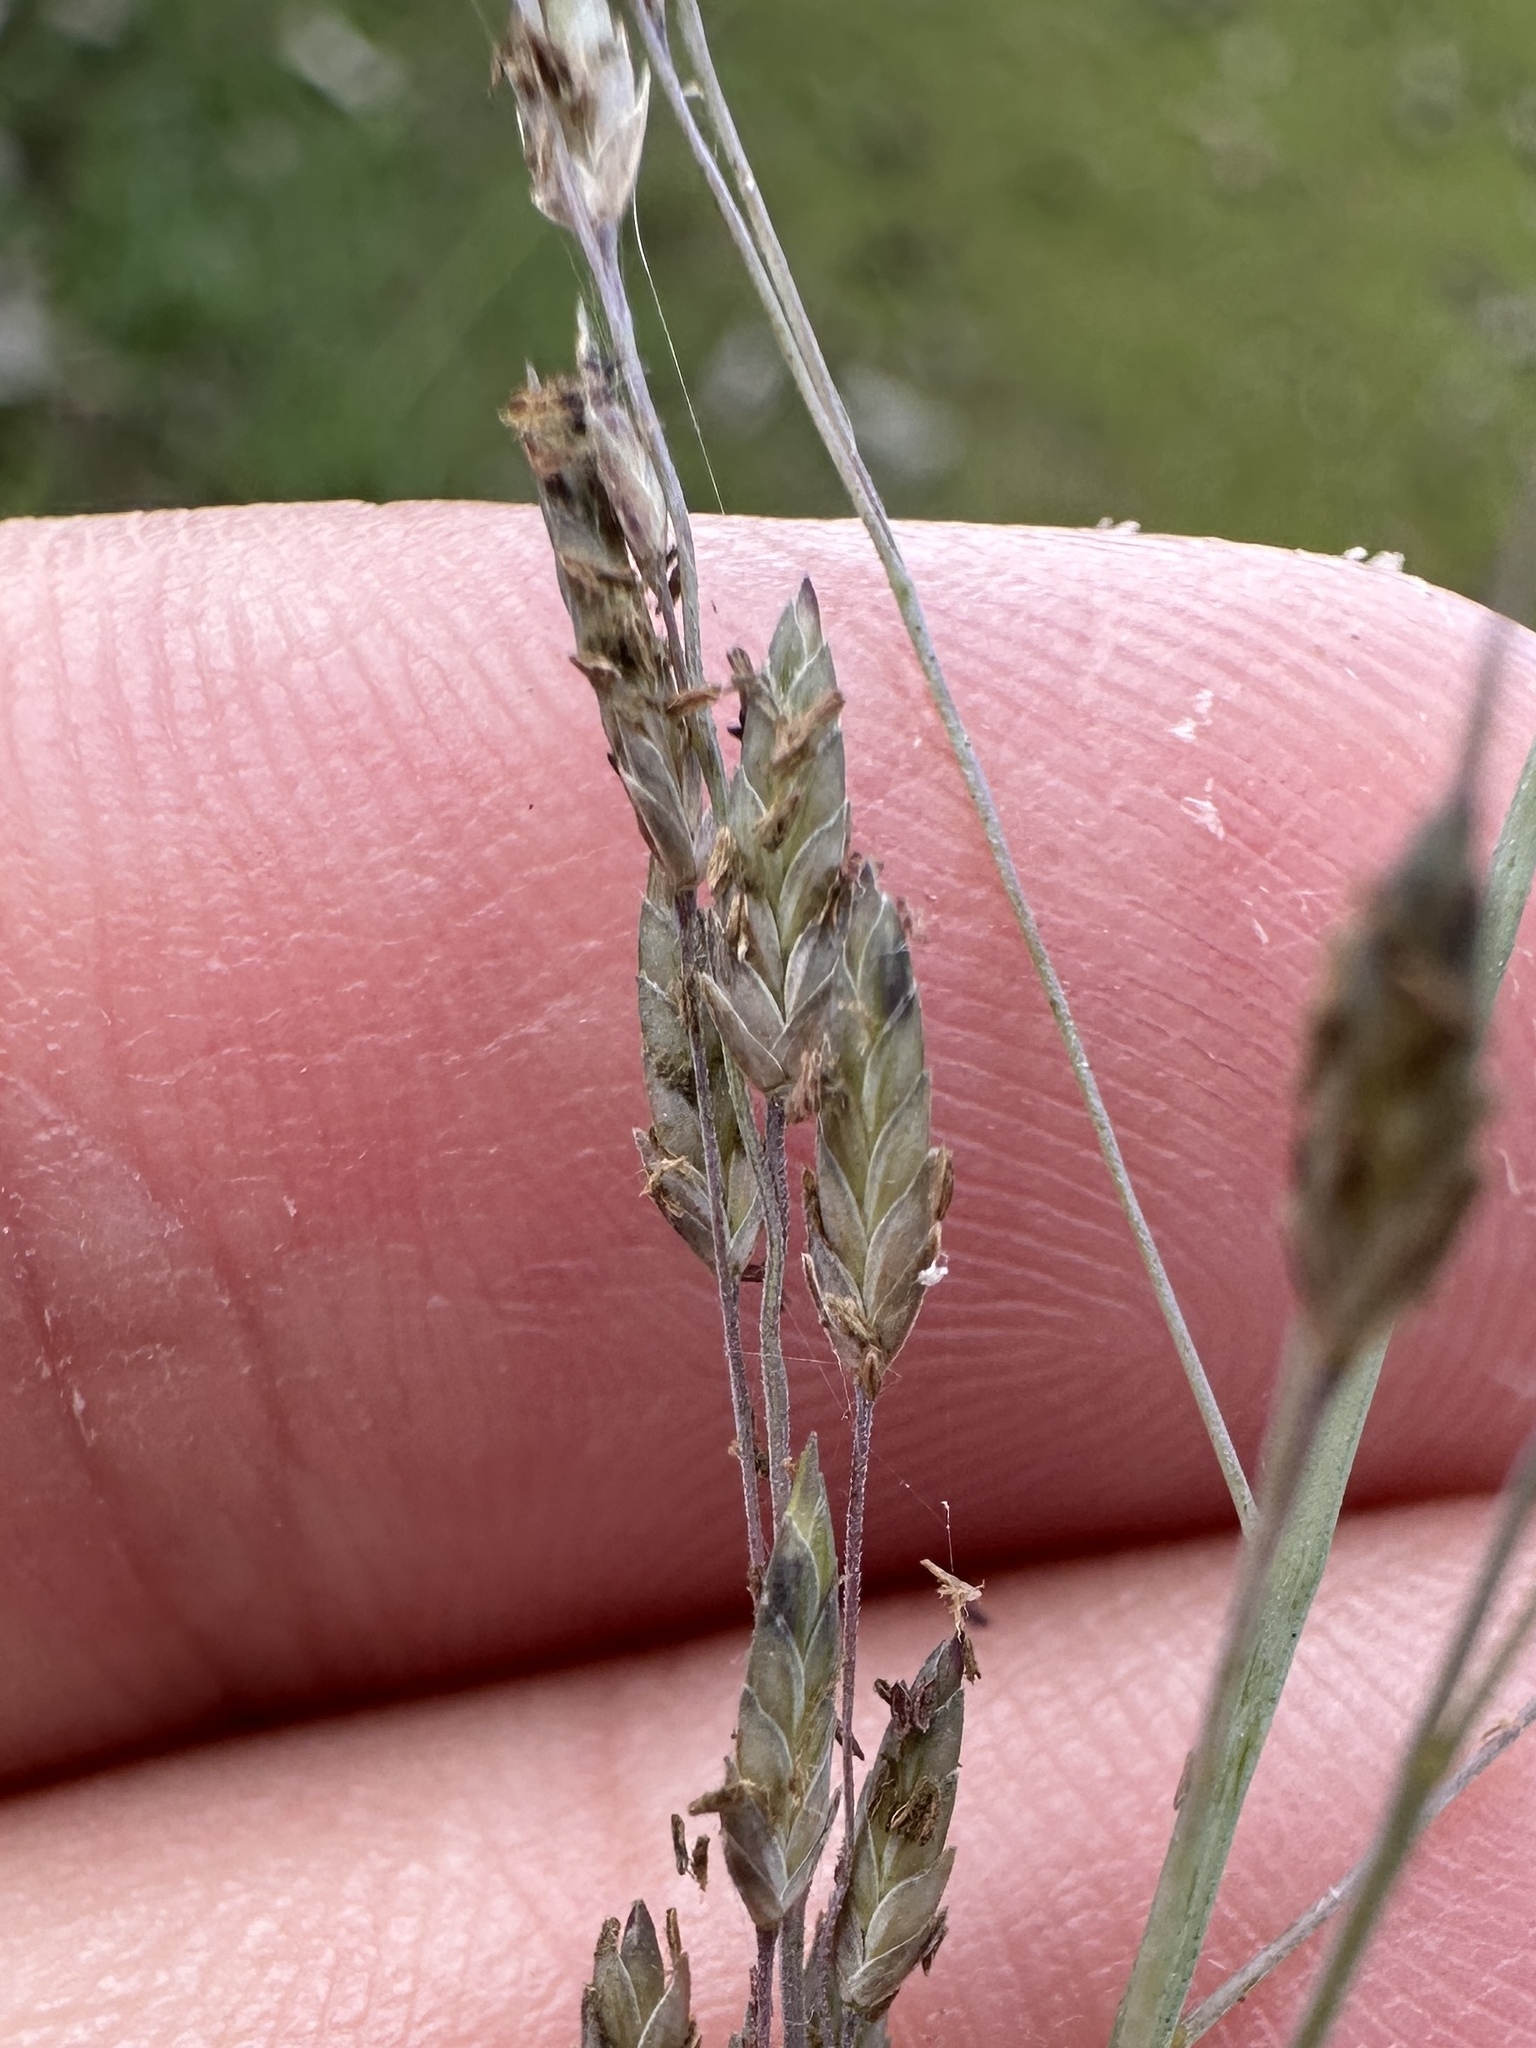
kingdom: Plantae
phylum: Tracheophyta
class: Liliopsida
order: Poales
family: Poaceae
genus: Eragrostis
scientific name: Eragrostis atrovirens
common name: Thalia lovegrass
